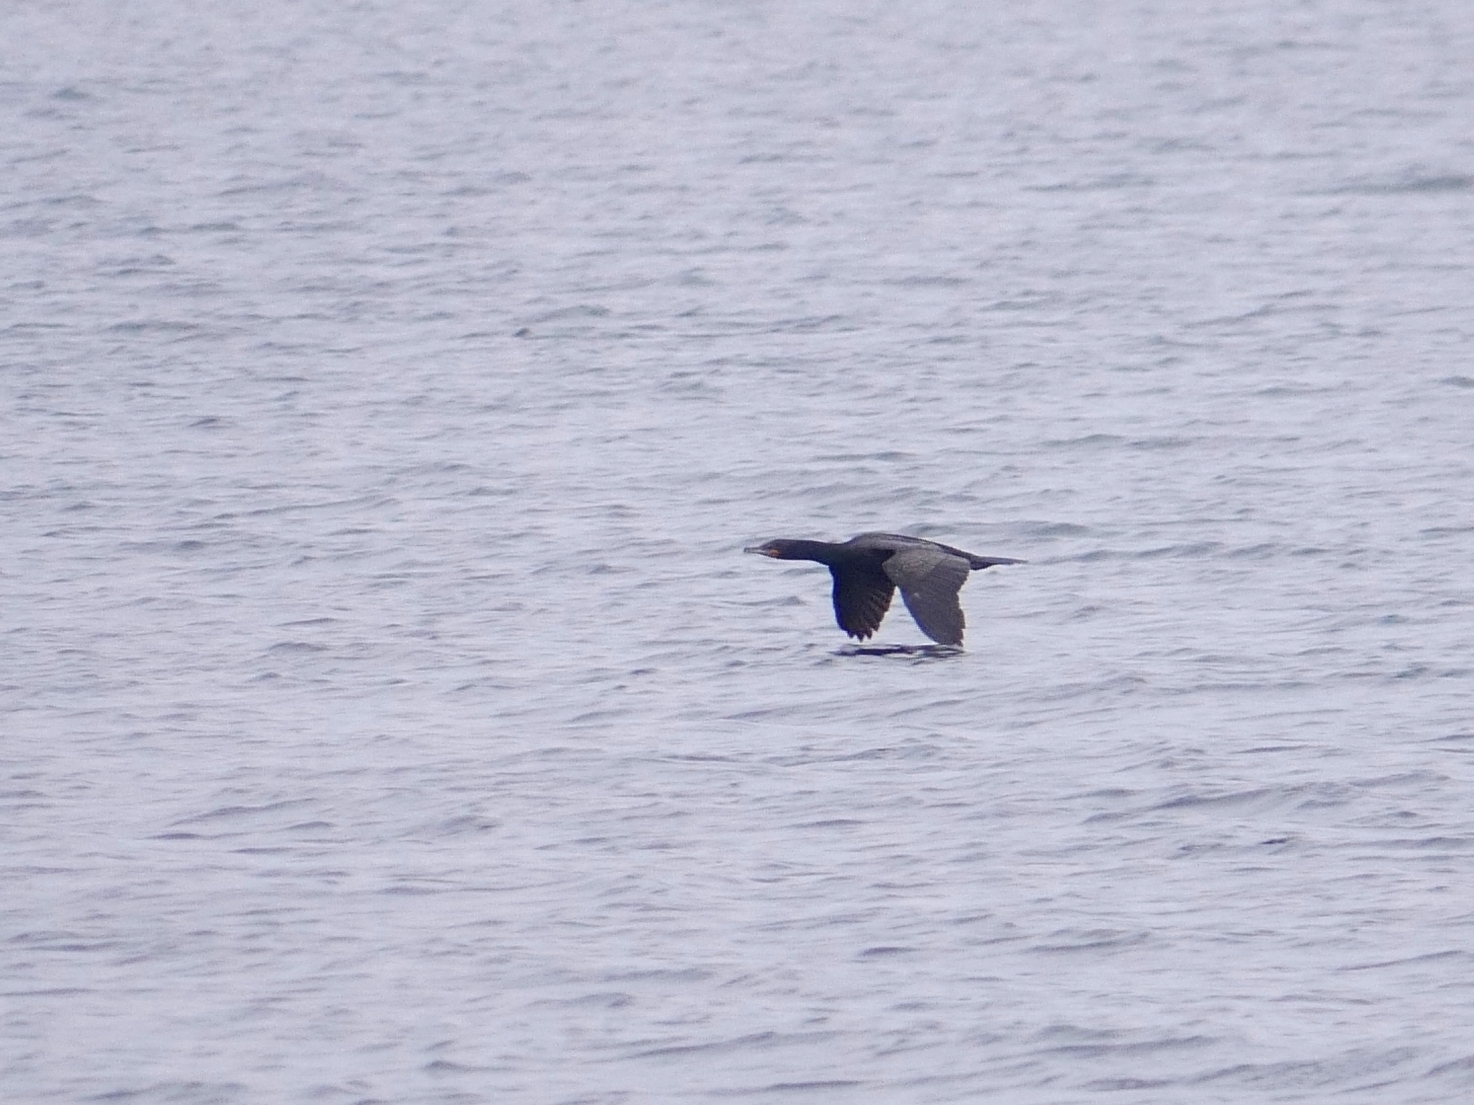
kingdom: Animalia
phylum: Chordata
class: Aves
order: Suliformes
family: Phalacrocoracidae
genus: Phalacrocorax
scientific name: Phalacrocorax auritus
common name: Double-crested cormorant
